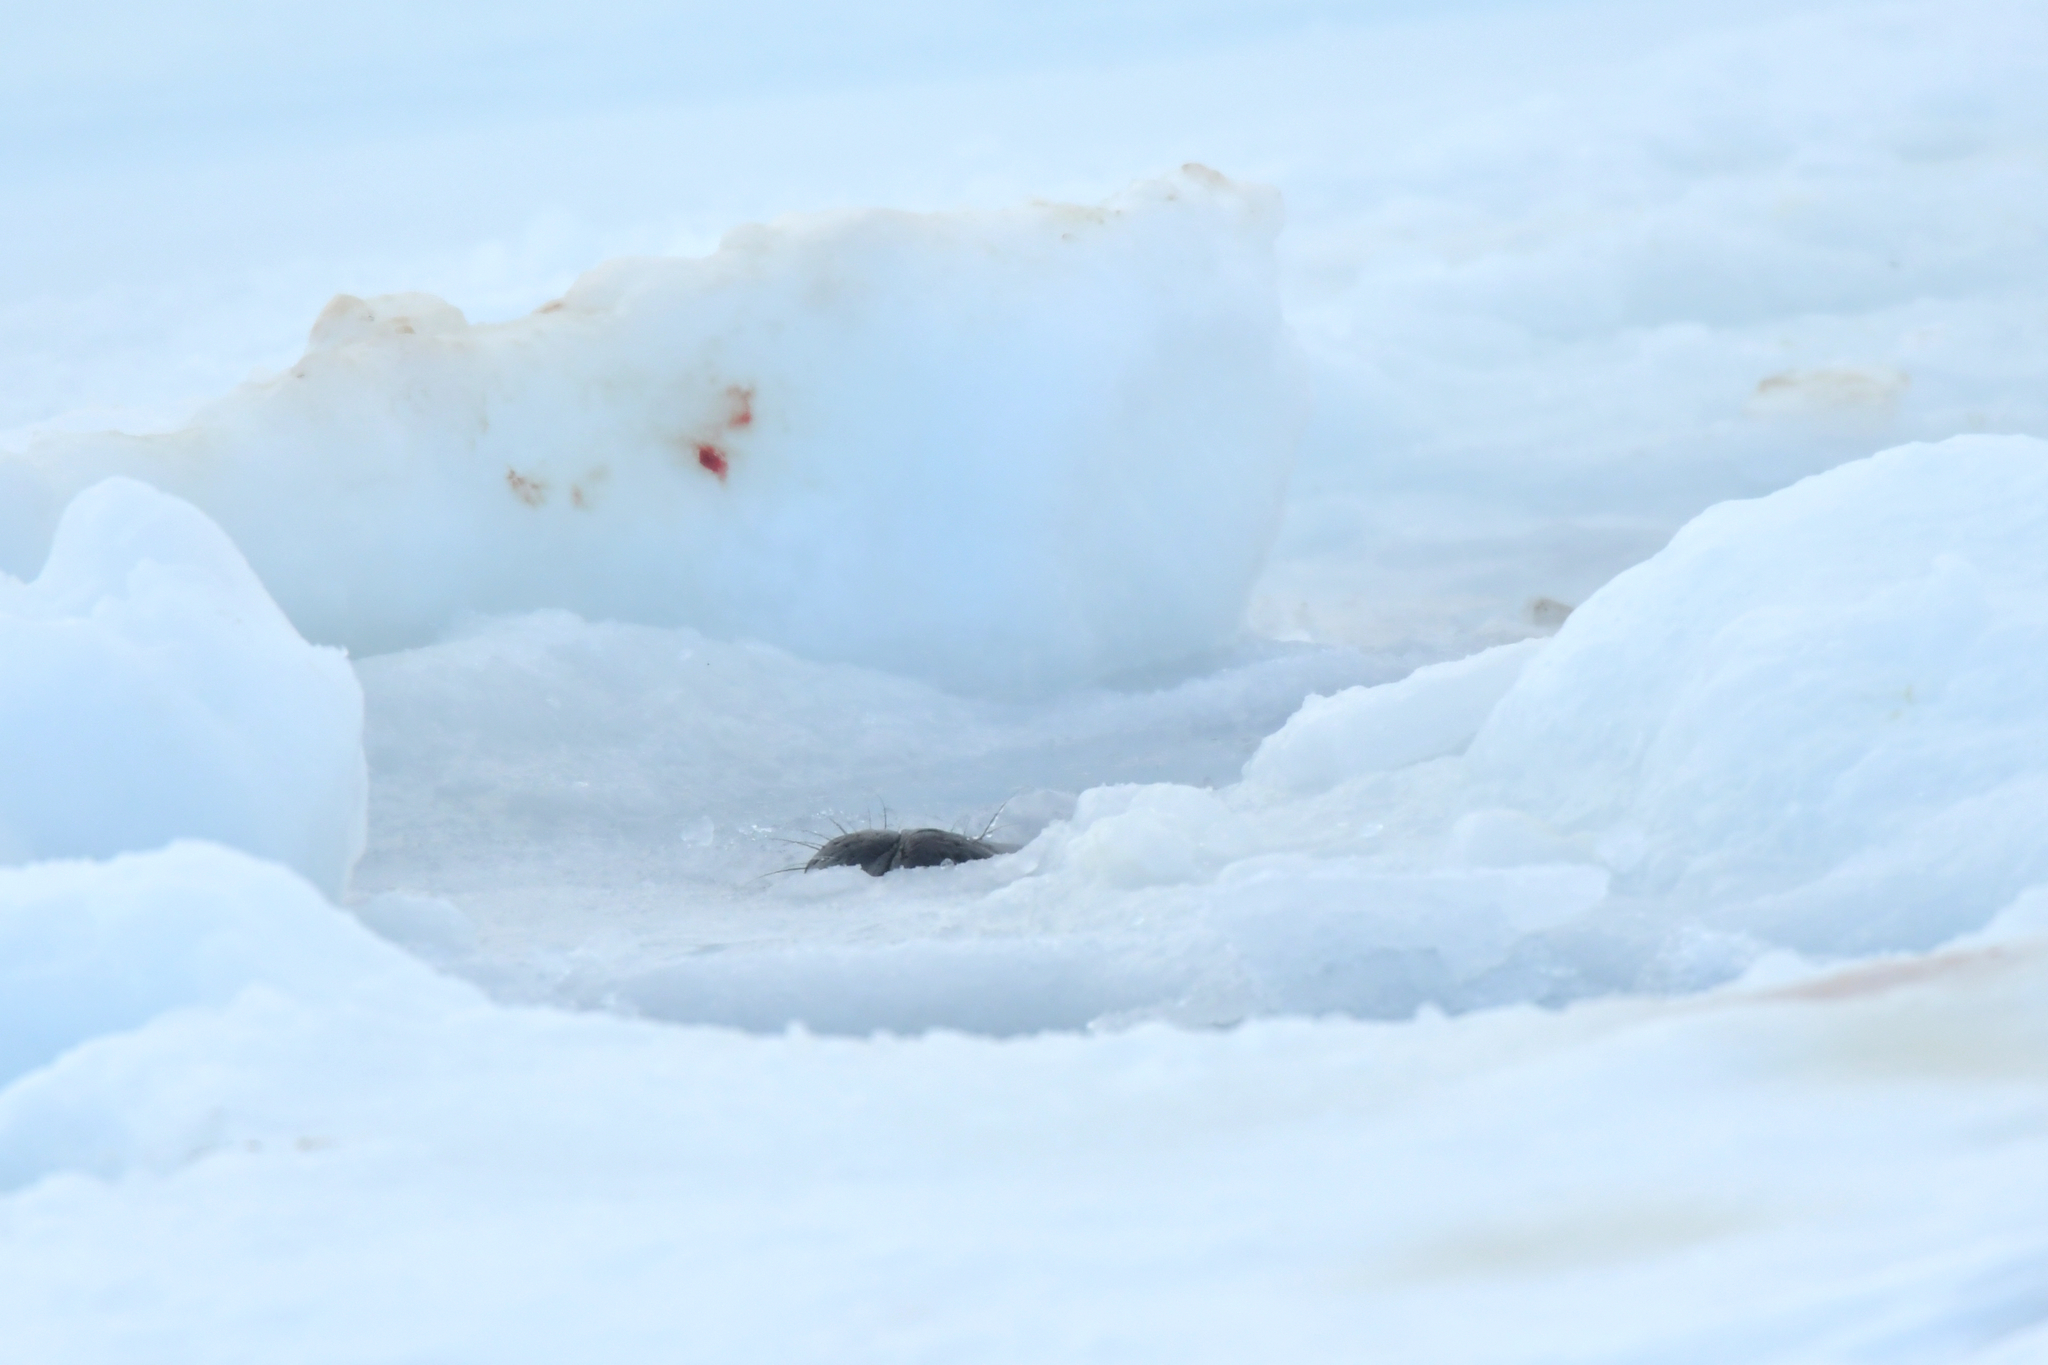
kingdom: Animalia
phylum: Chordata
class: Mammalia
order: Carnivora
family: Phocidae
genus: Leptonychotes
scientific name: Leptonychotes weddellii
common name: Weddell seal
